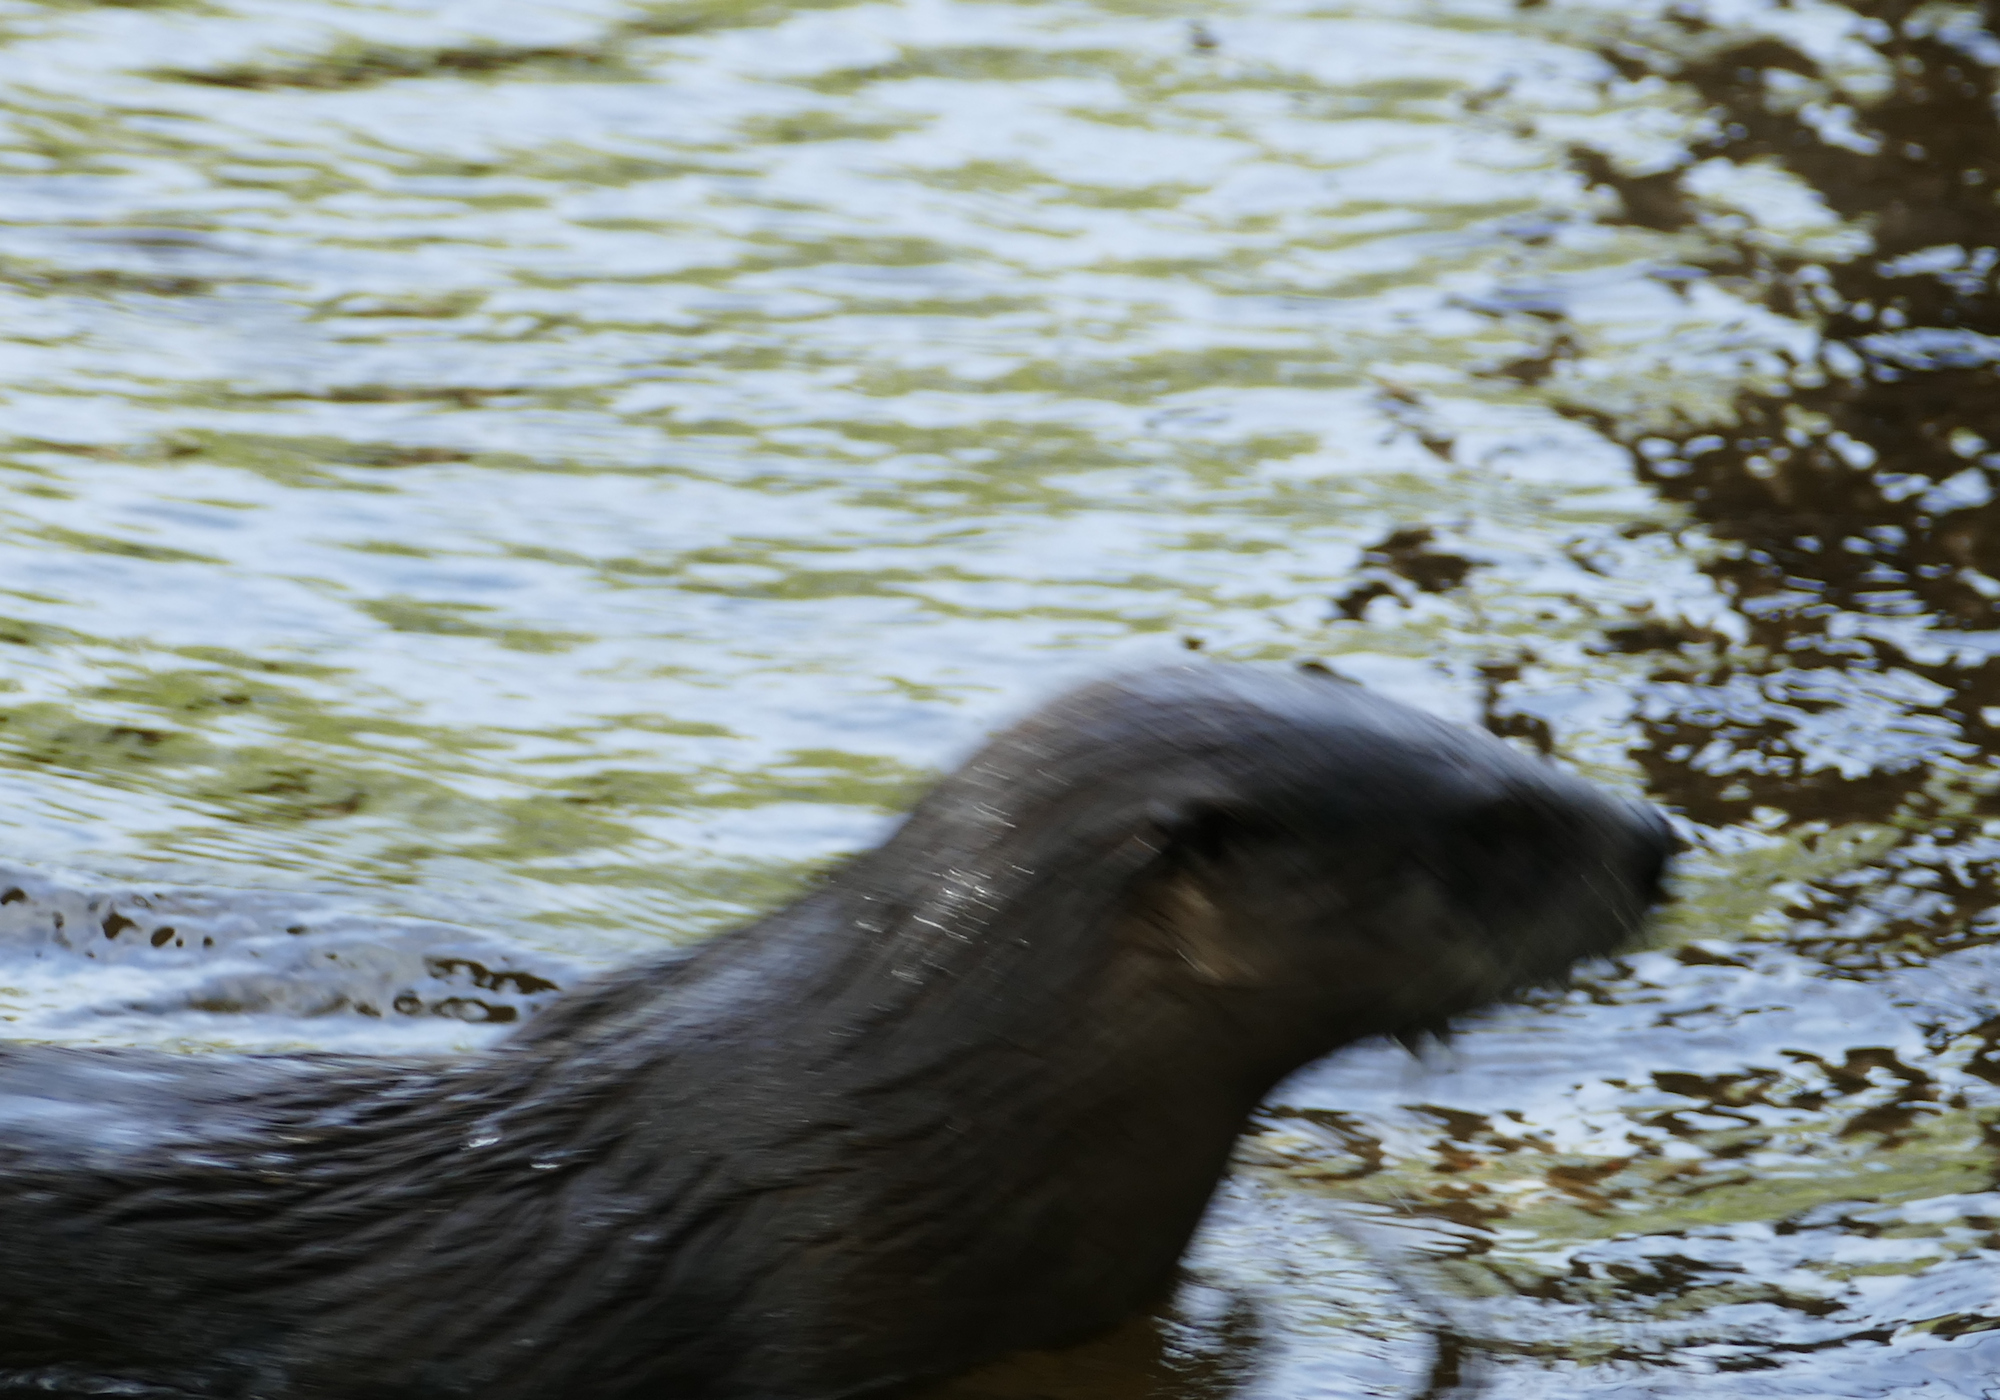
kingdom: Animalia
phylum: Chordata
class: Mammalia
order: Carnivora
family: Mustelidae
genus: Lontra
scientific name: Lontra canadensis
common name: North american river otter
